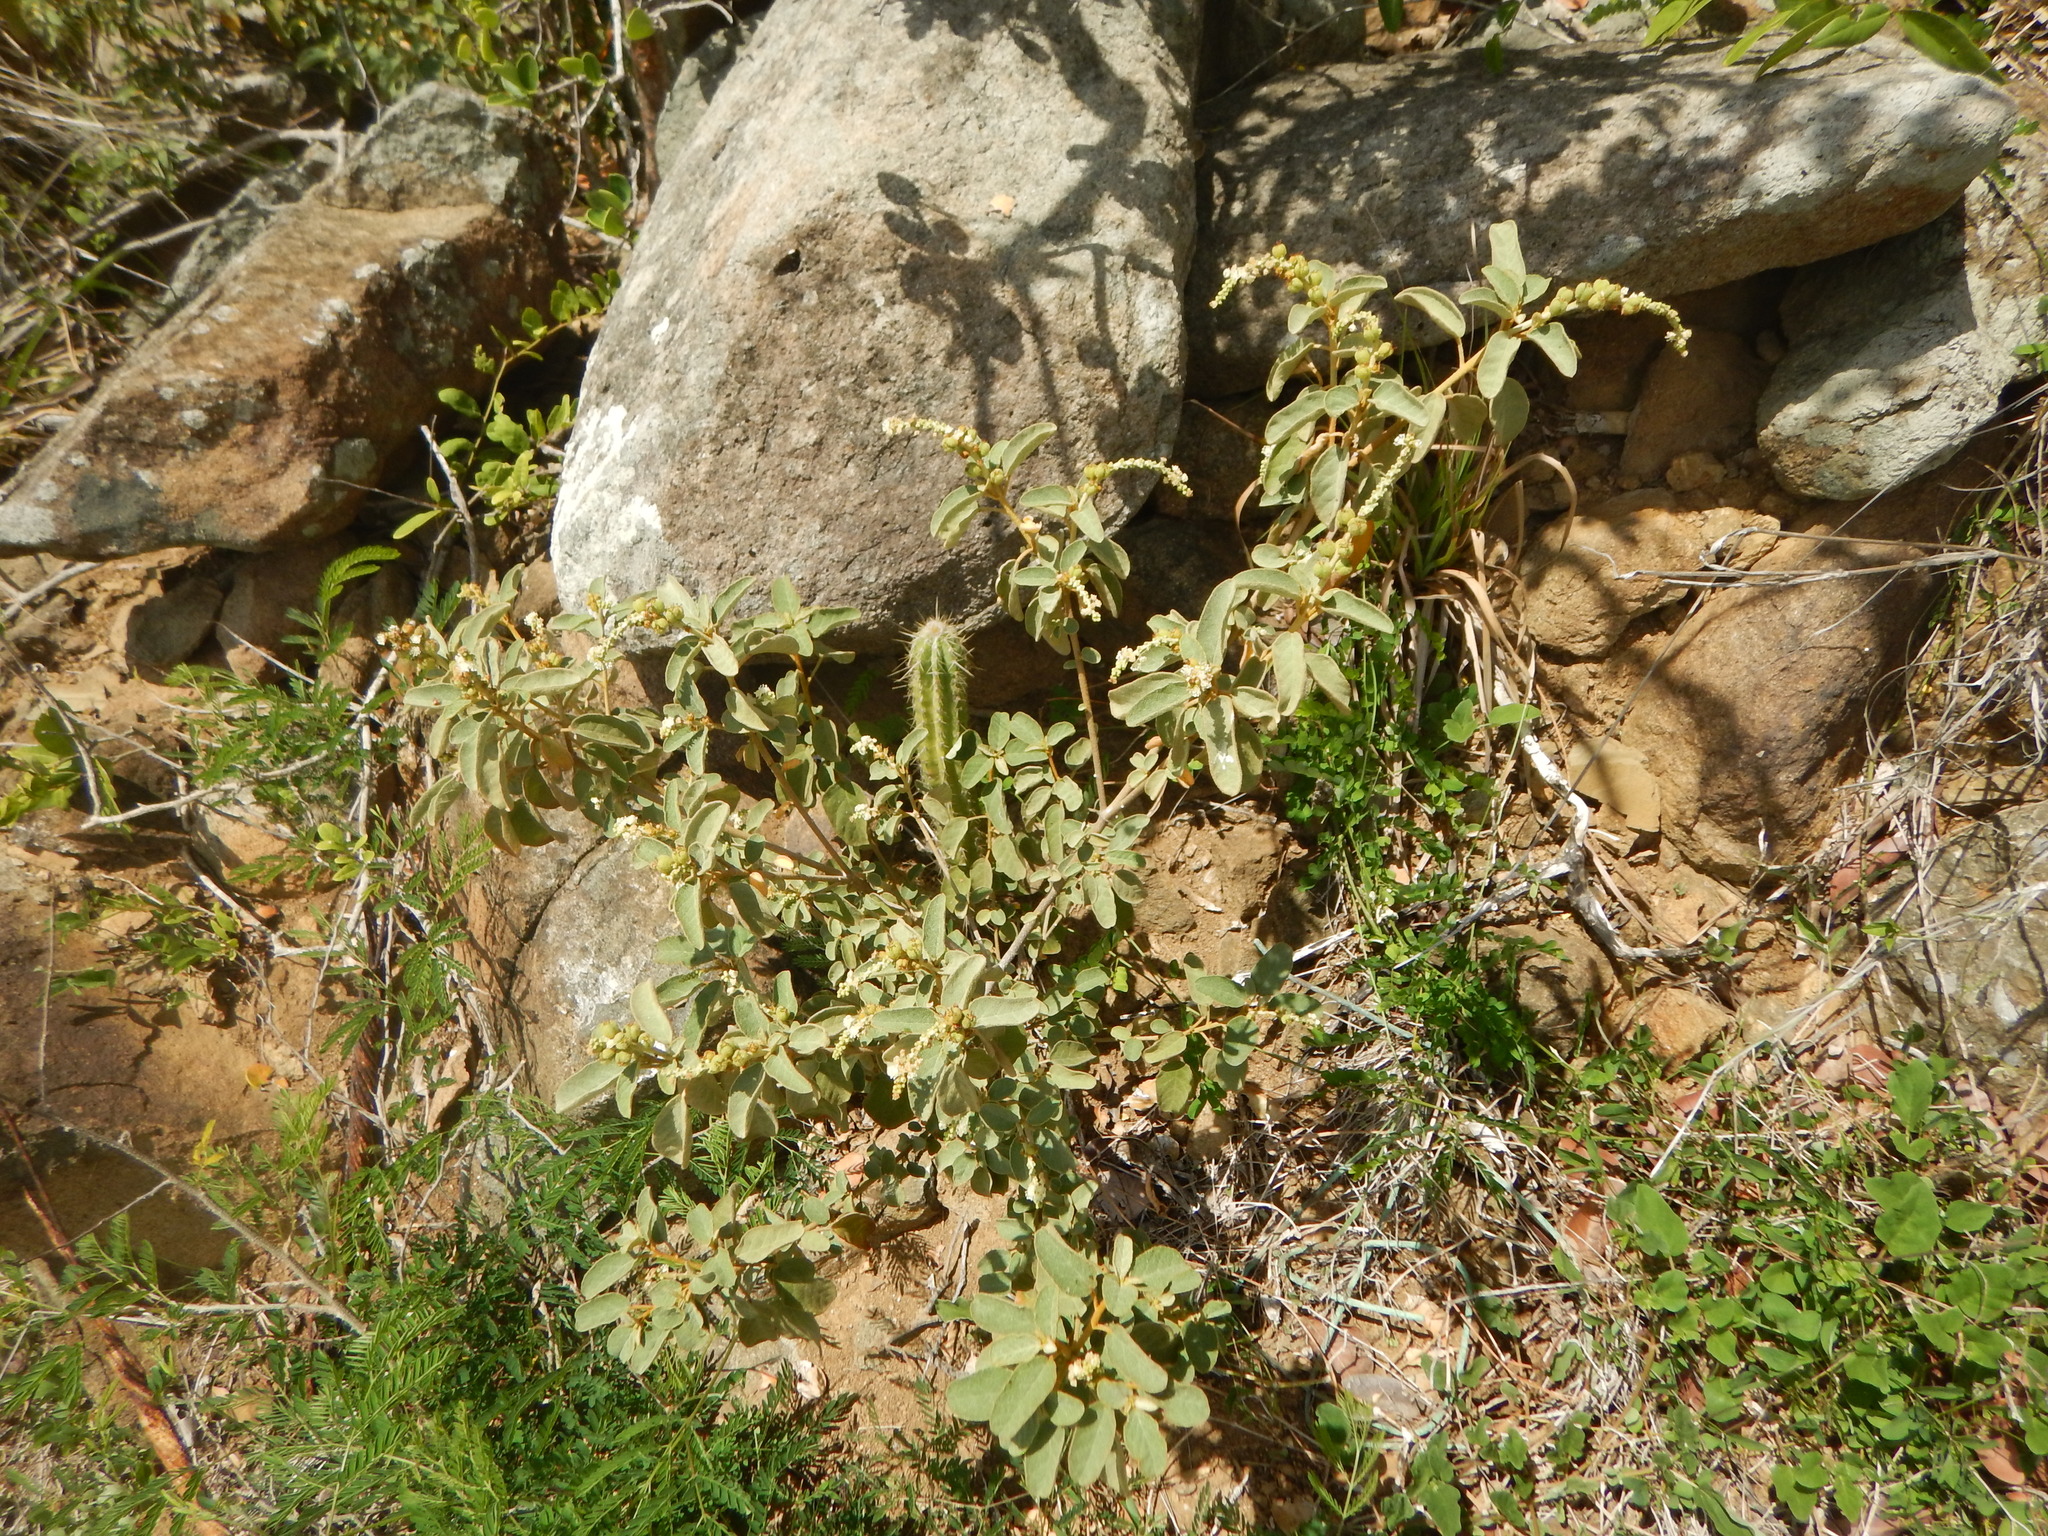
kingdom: Plantae
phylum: Tracheophyta
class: Magnoliopsida
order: Malpighiales
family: Euphorbiaceae
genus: Croton
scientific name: Croton flavens
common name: Yellow balsam
